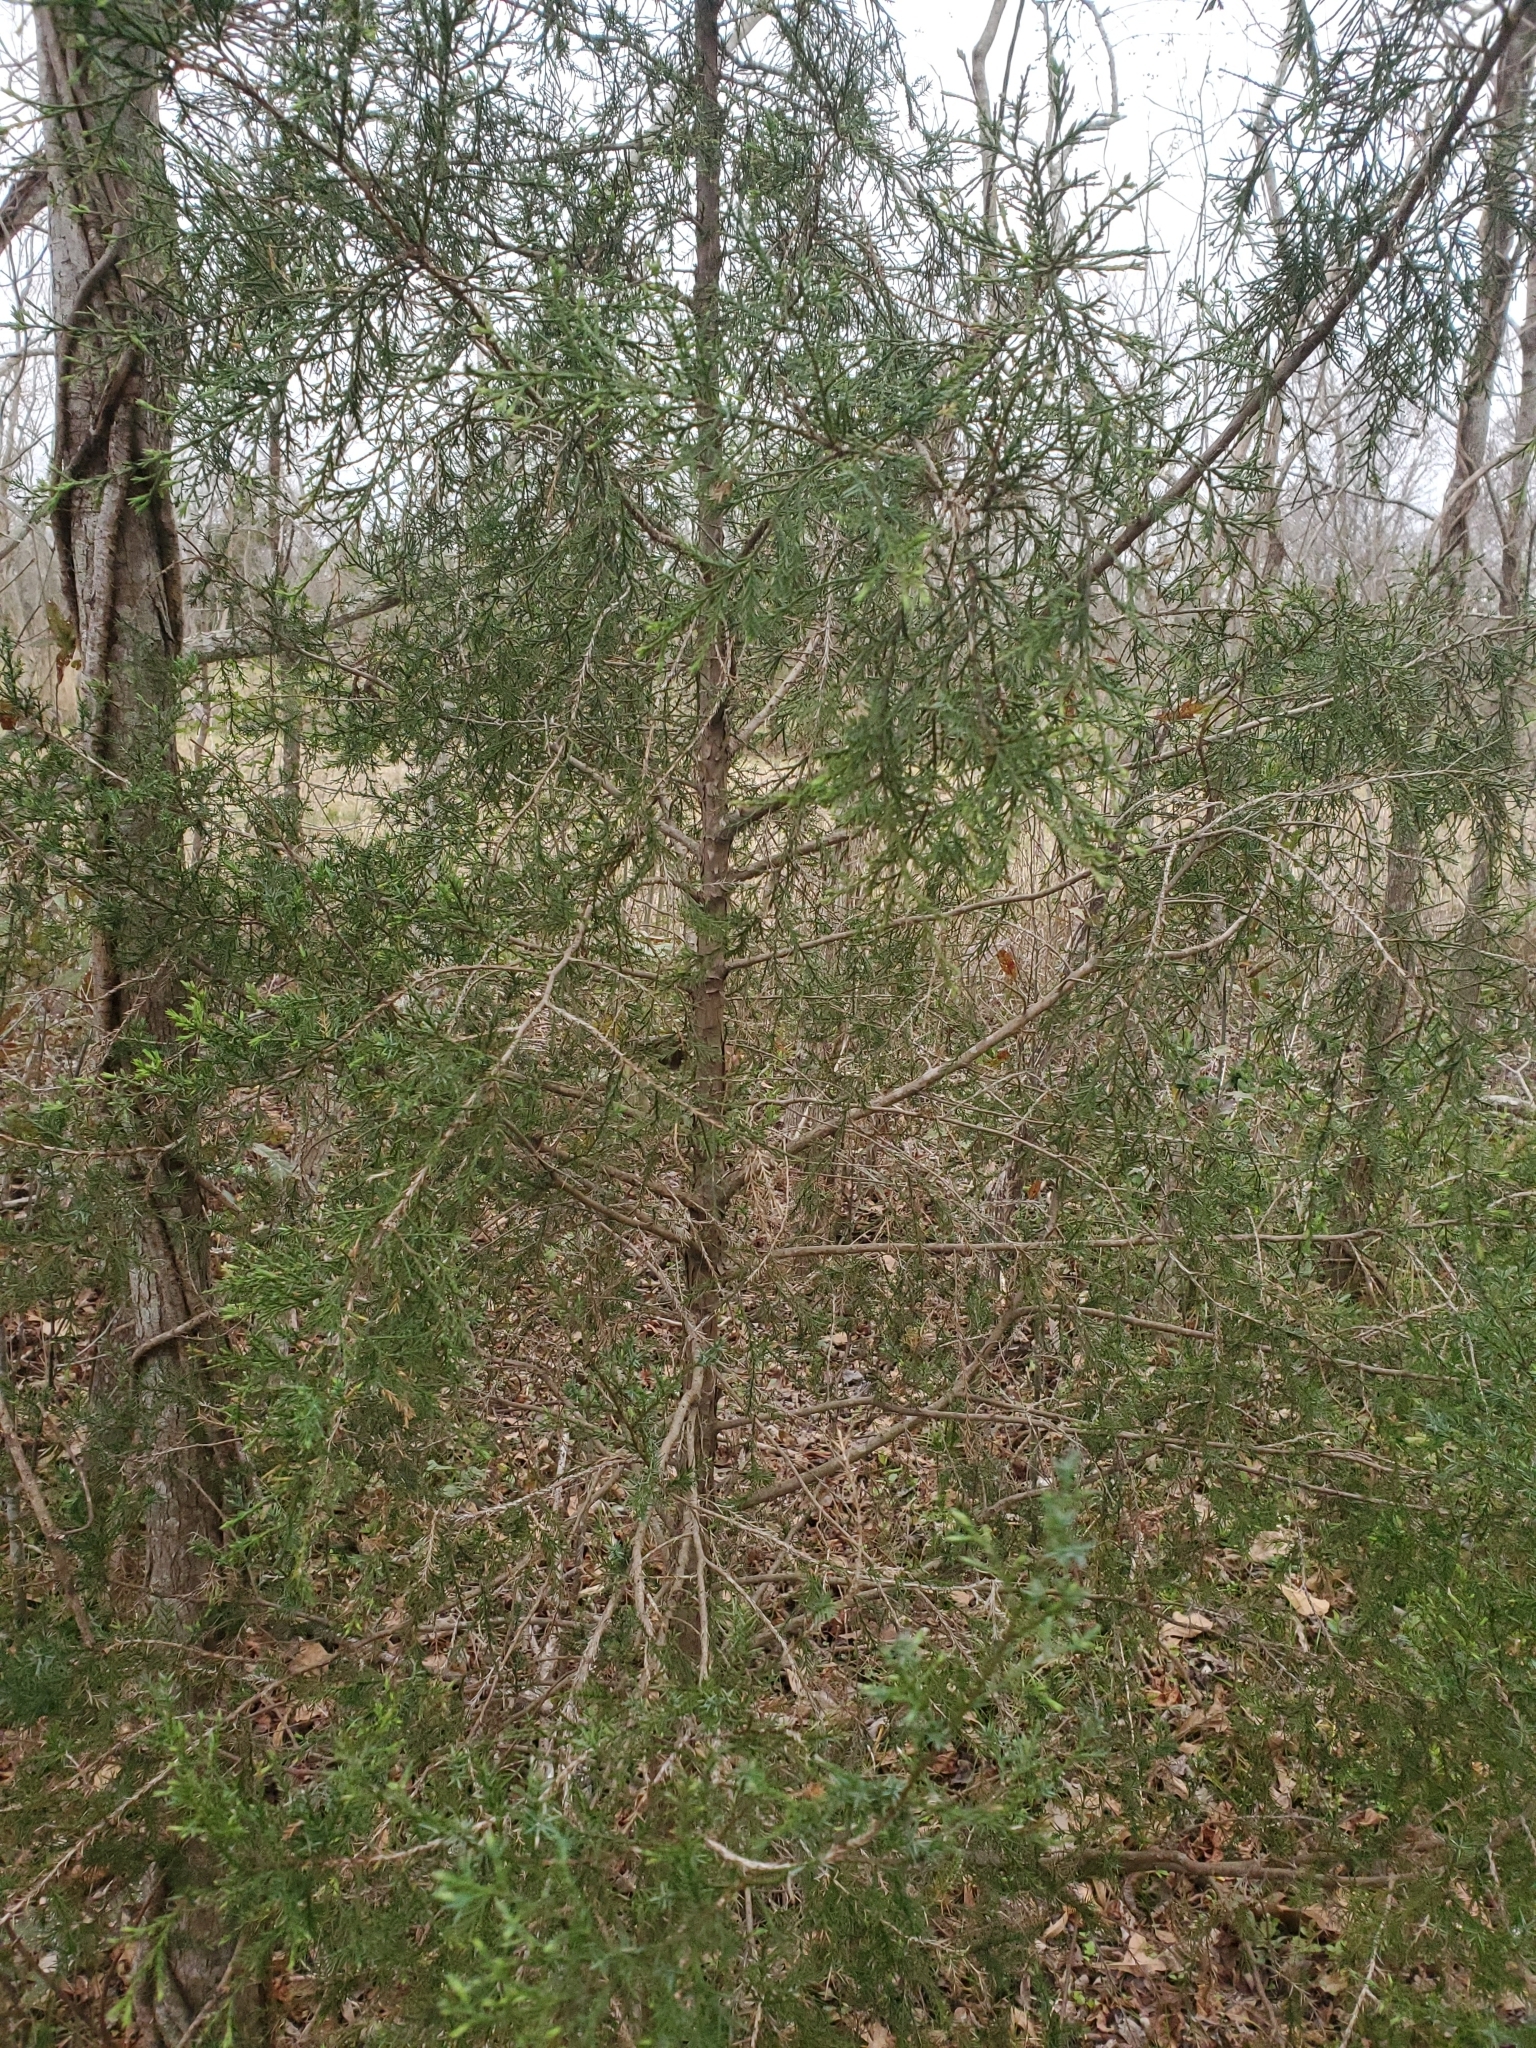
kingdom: Plantae
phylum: Tracheophyta
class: Pinopsida
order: Pinales
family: Cupressaceae
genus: Juniperus
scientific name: Juniperus virginiana
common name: Red juniper
